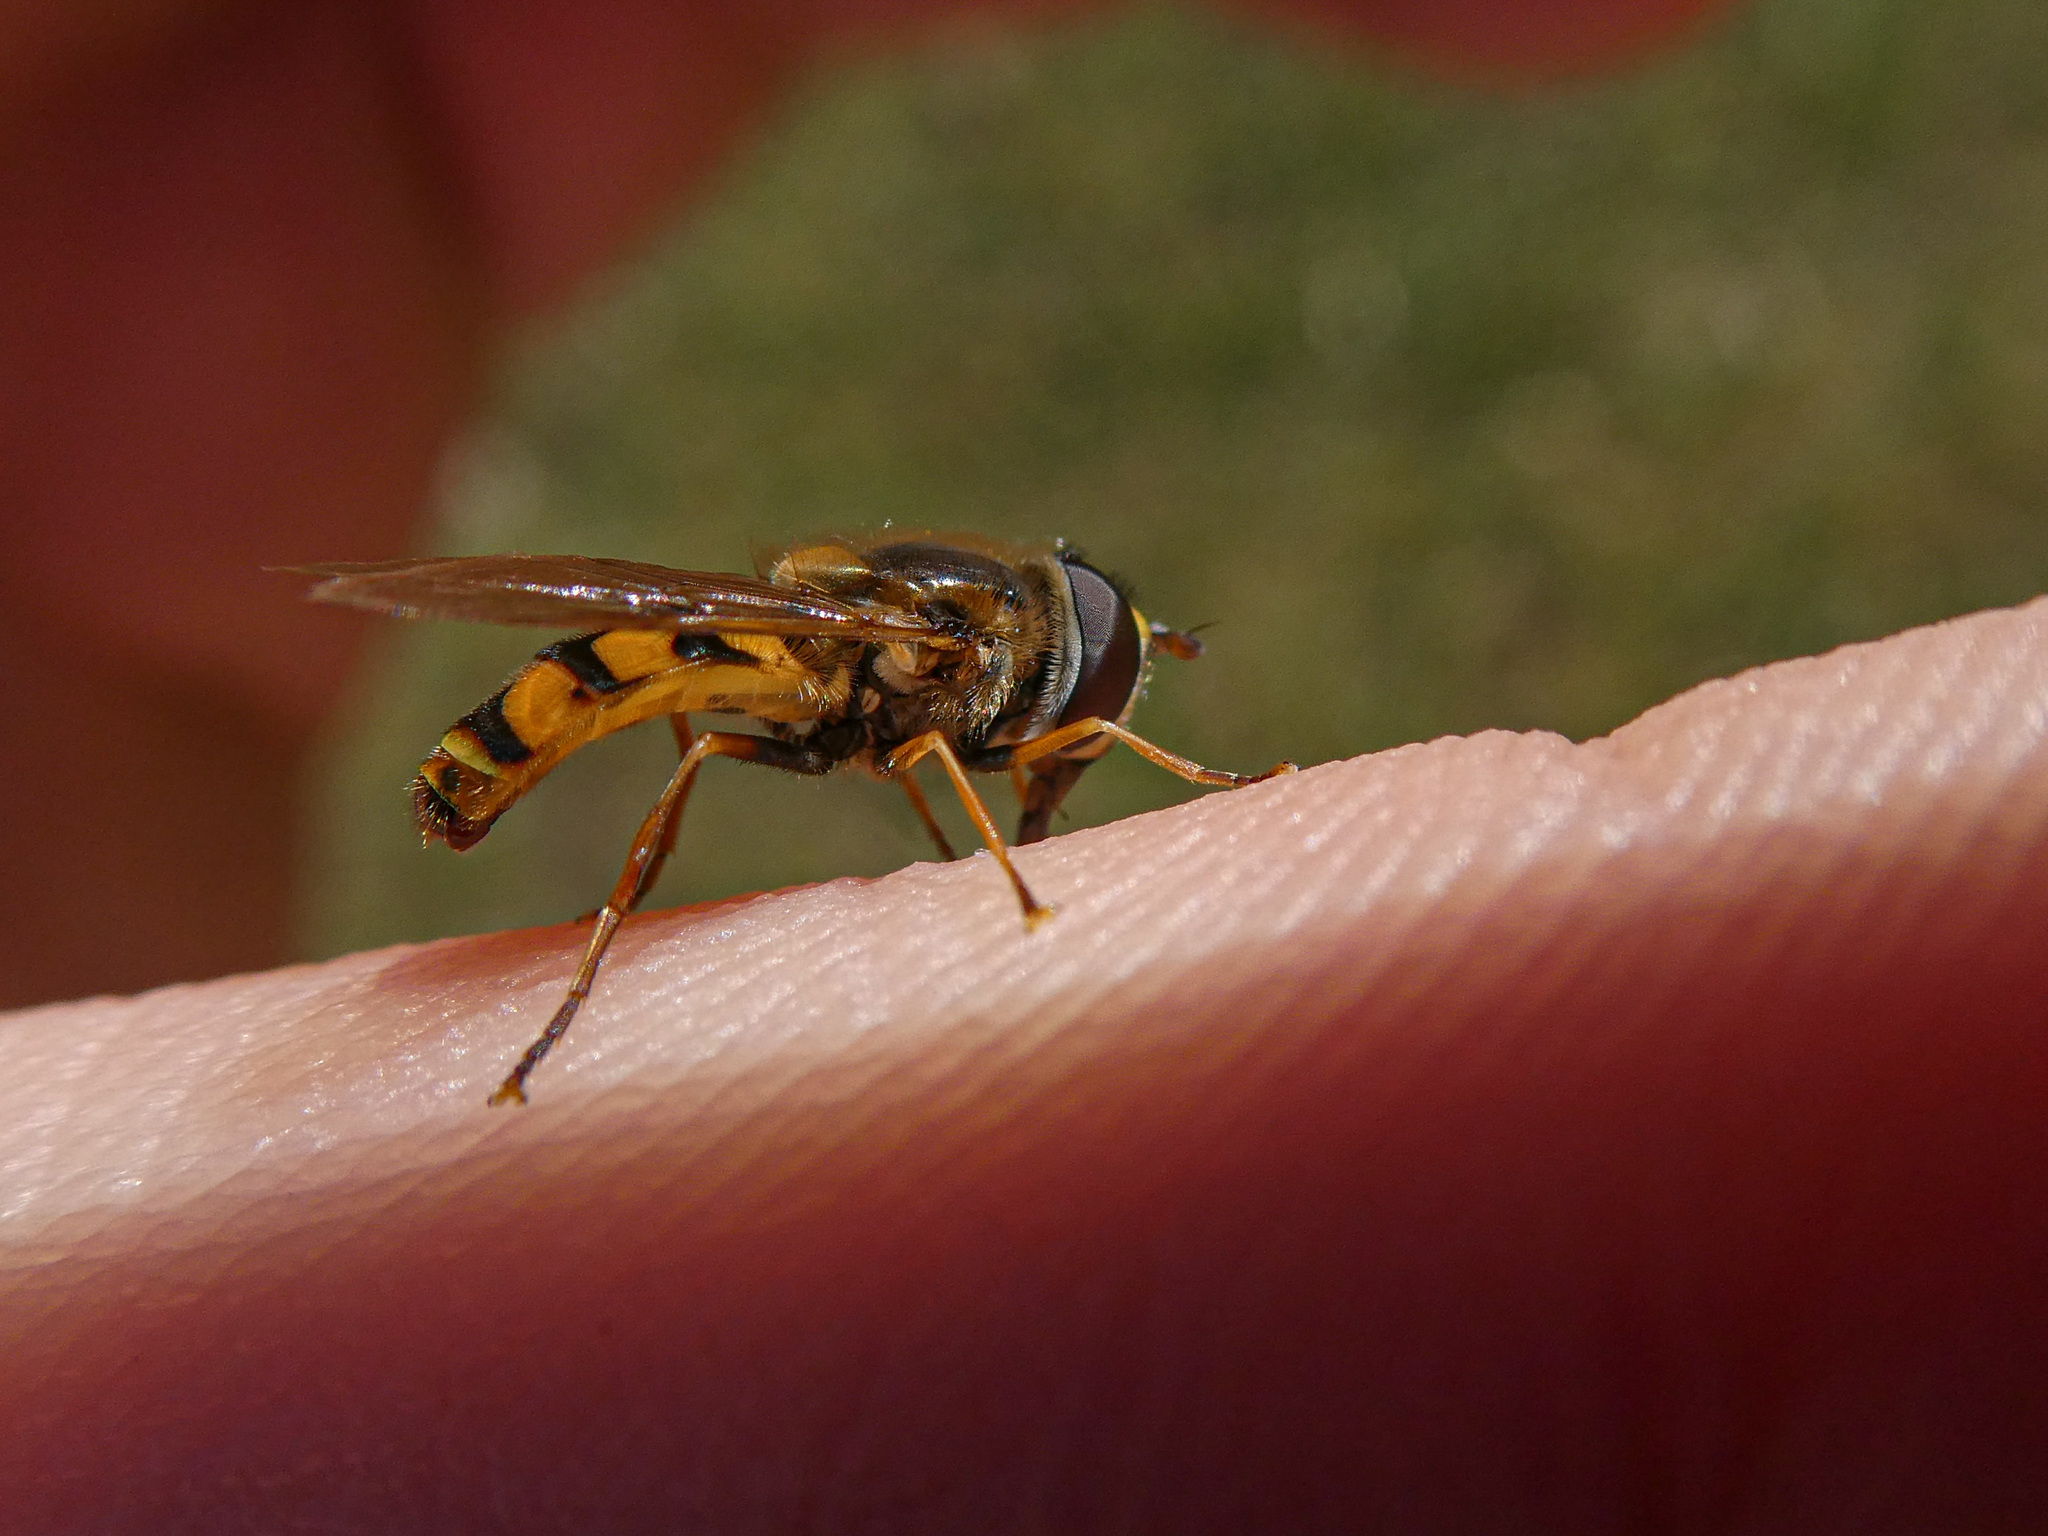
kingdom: Animalia
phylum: Arthropoda
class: Insecta
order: Diptera
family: Syrphidae
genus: Eupeodes
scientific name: Eupeodes corollae
